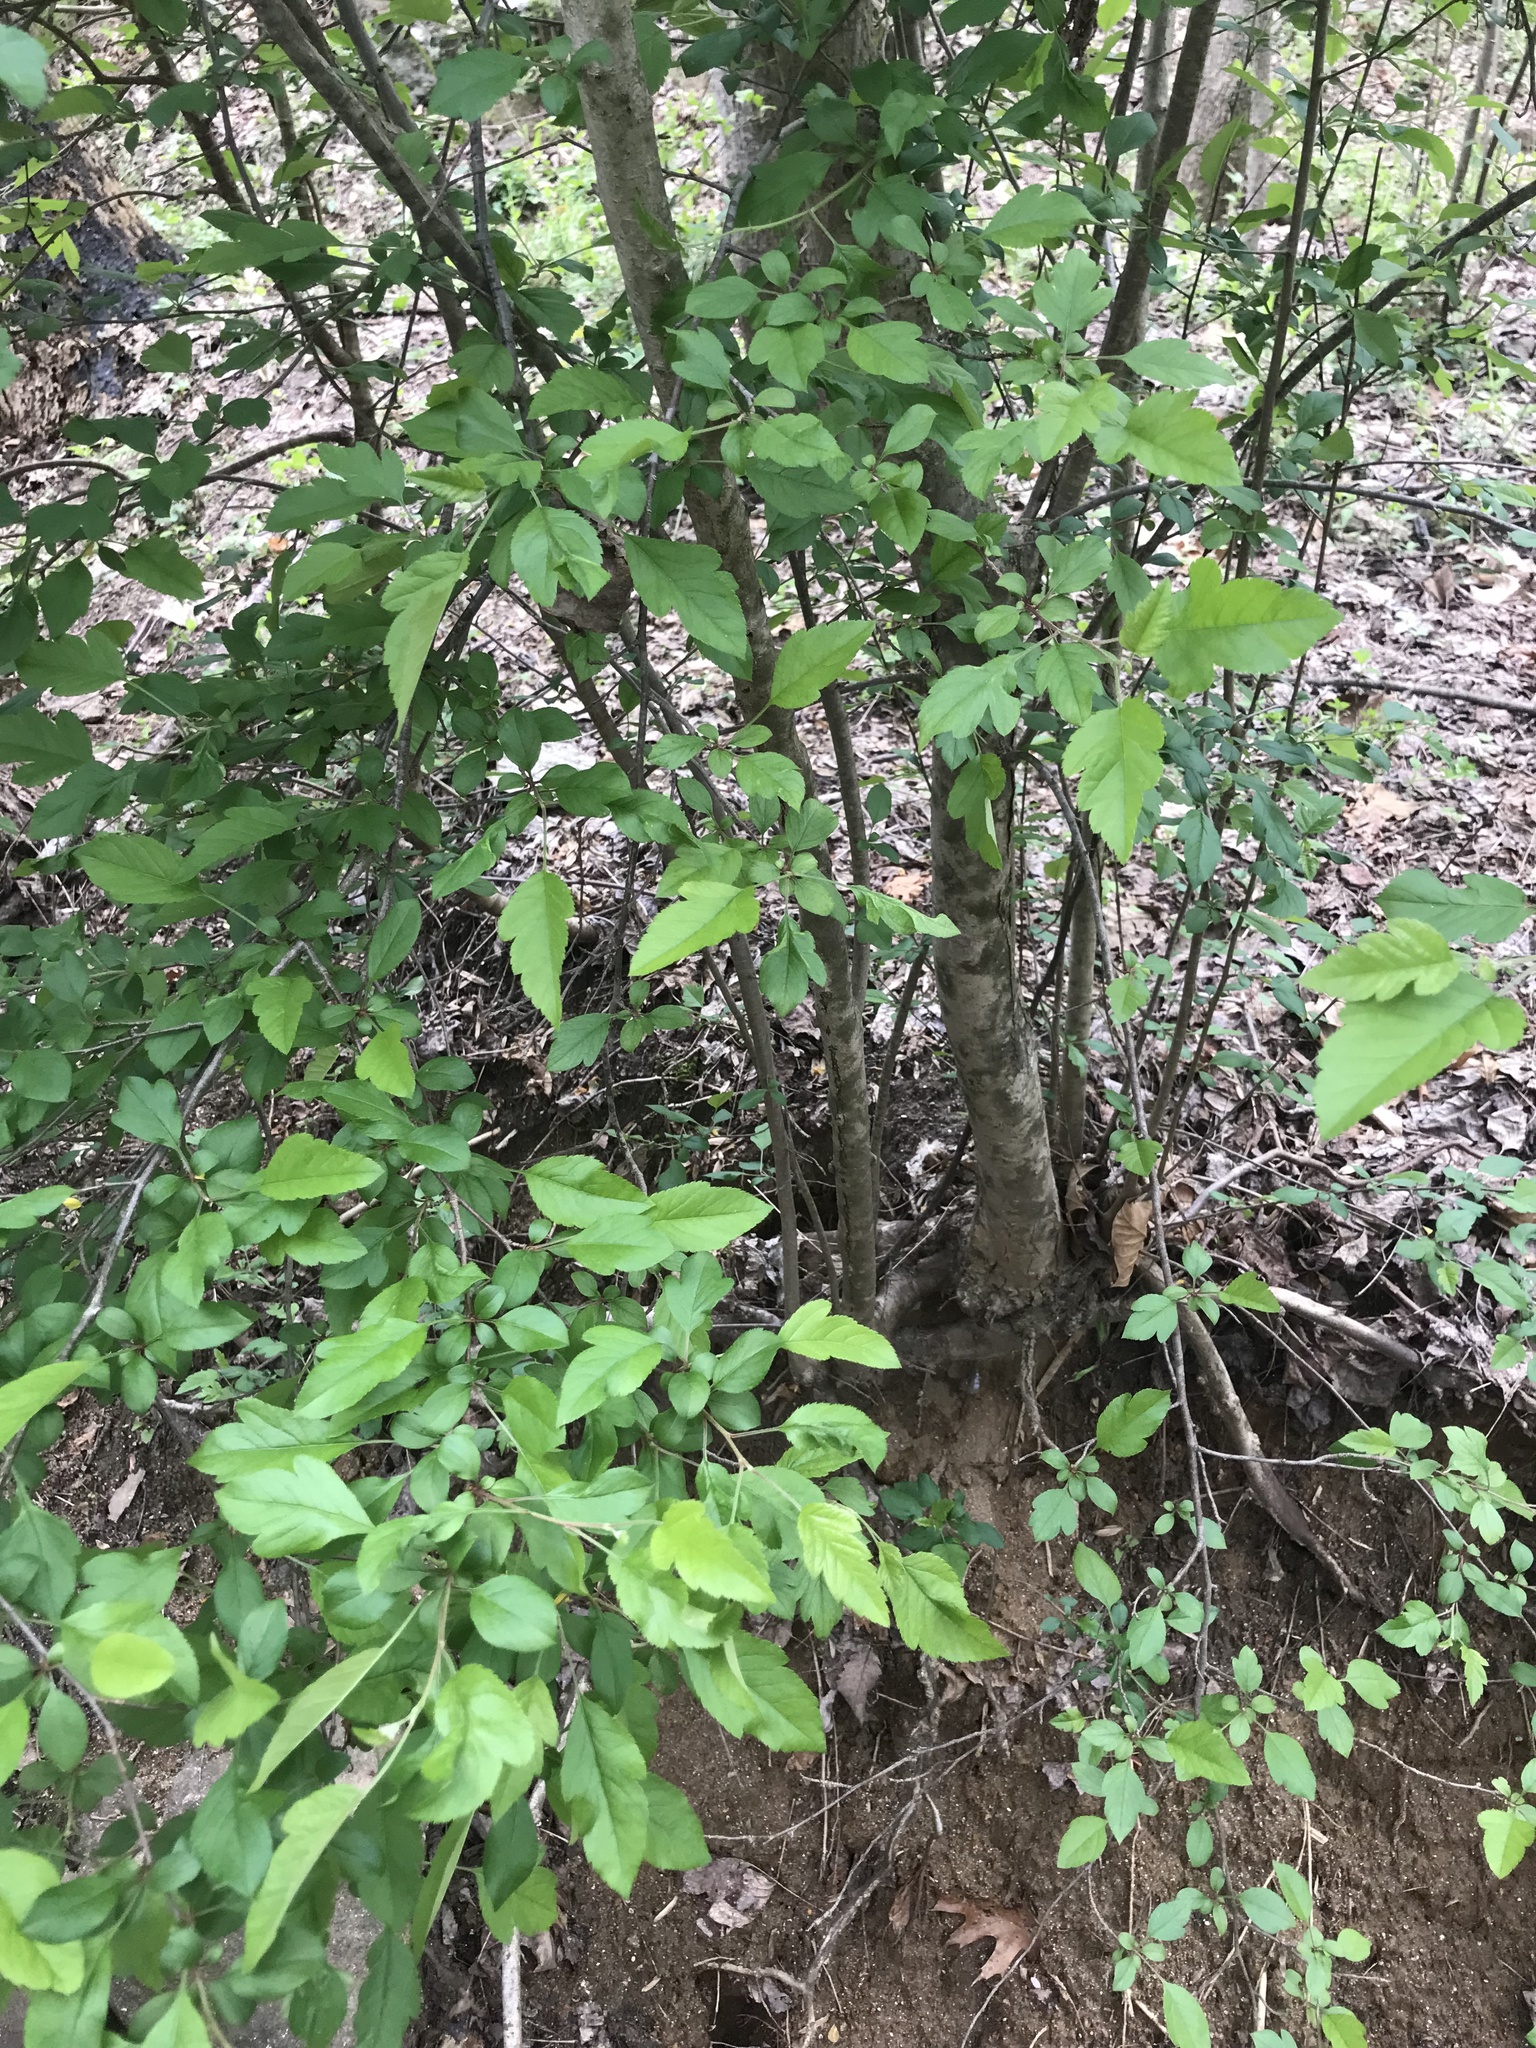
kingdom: Plantae
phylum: Tracheophyta
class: Magnoliopsida
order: Rosales
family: Rosaceae
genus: Malus
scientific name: Malus coronaria
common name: Sweet crab apple
